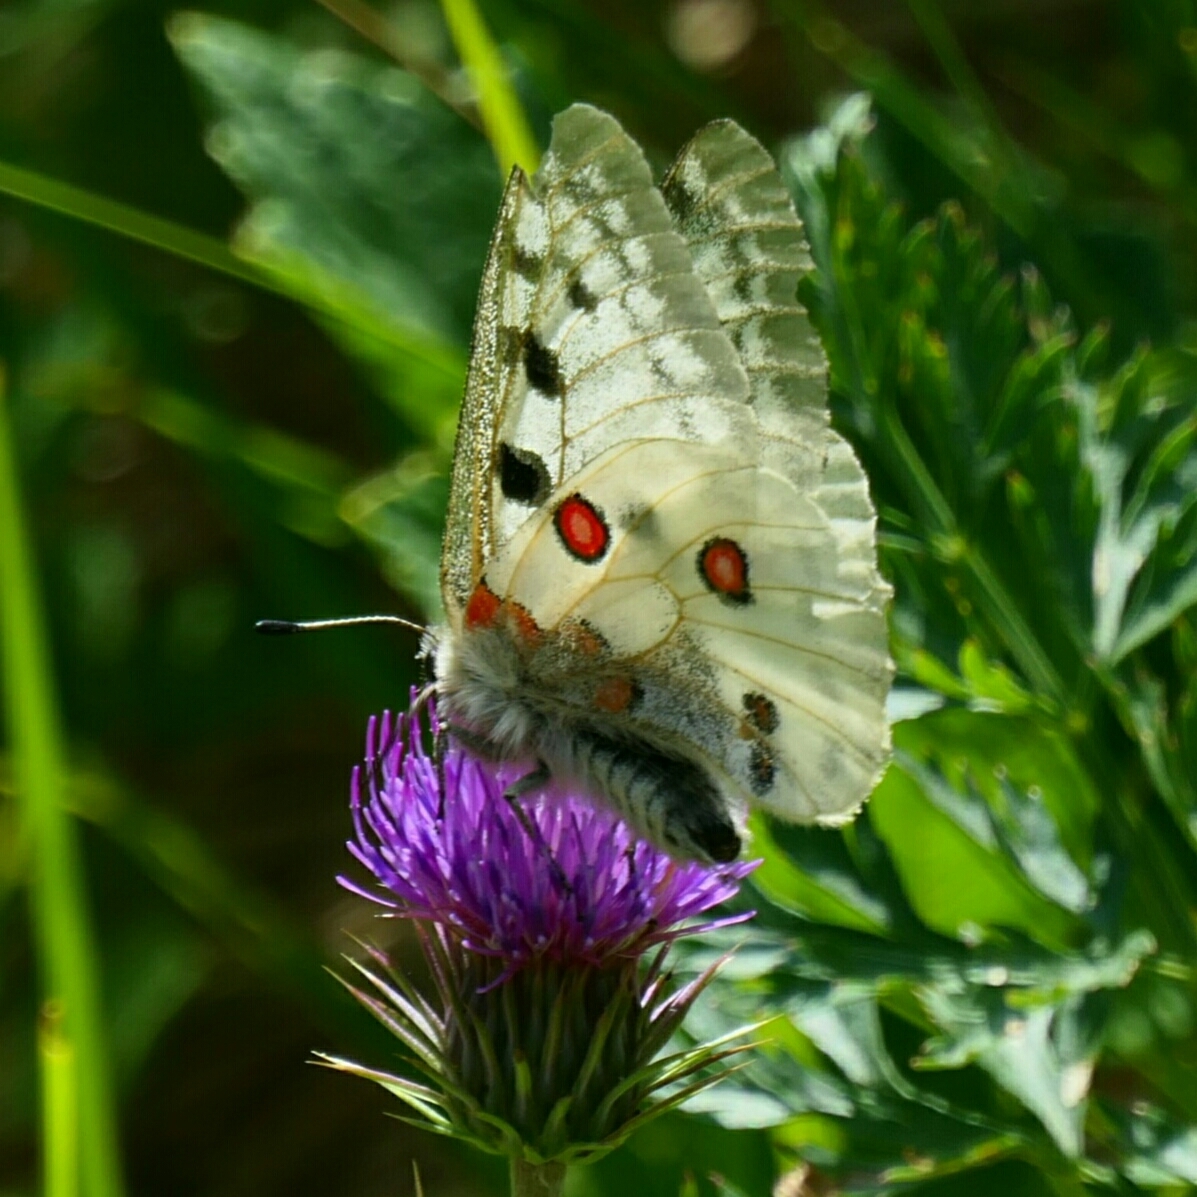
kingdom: Animalia
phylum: Arthropoda
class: Insecta
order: Lepidoptera
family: Papilionidae
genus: Parnassius
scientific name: Parnassius apollo
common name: Apollo
